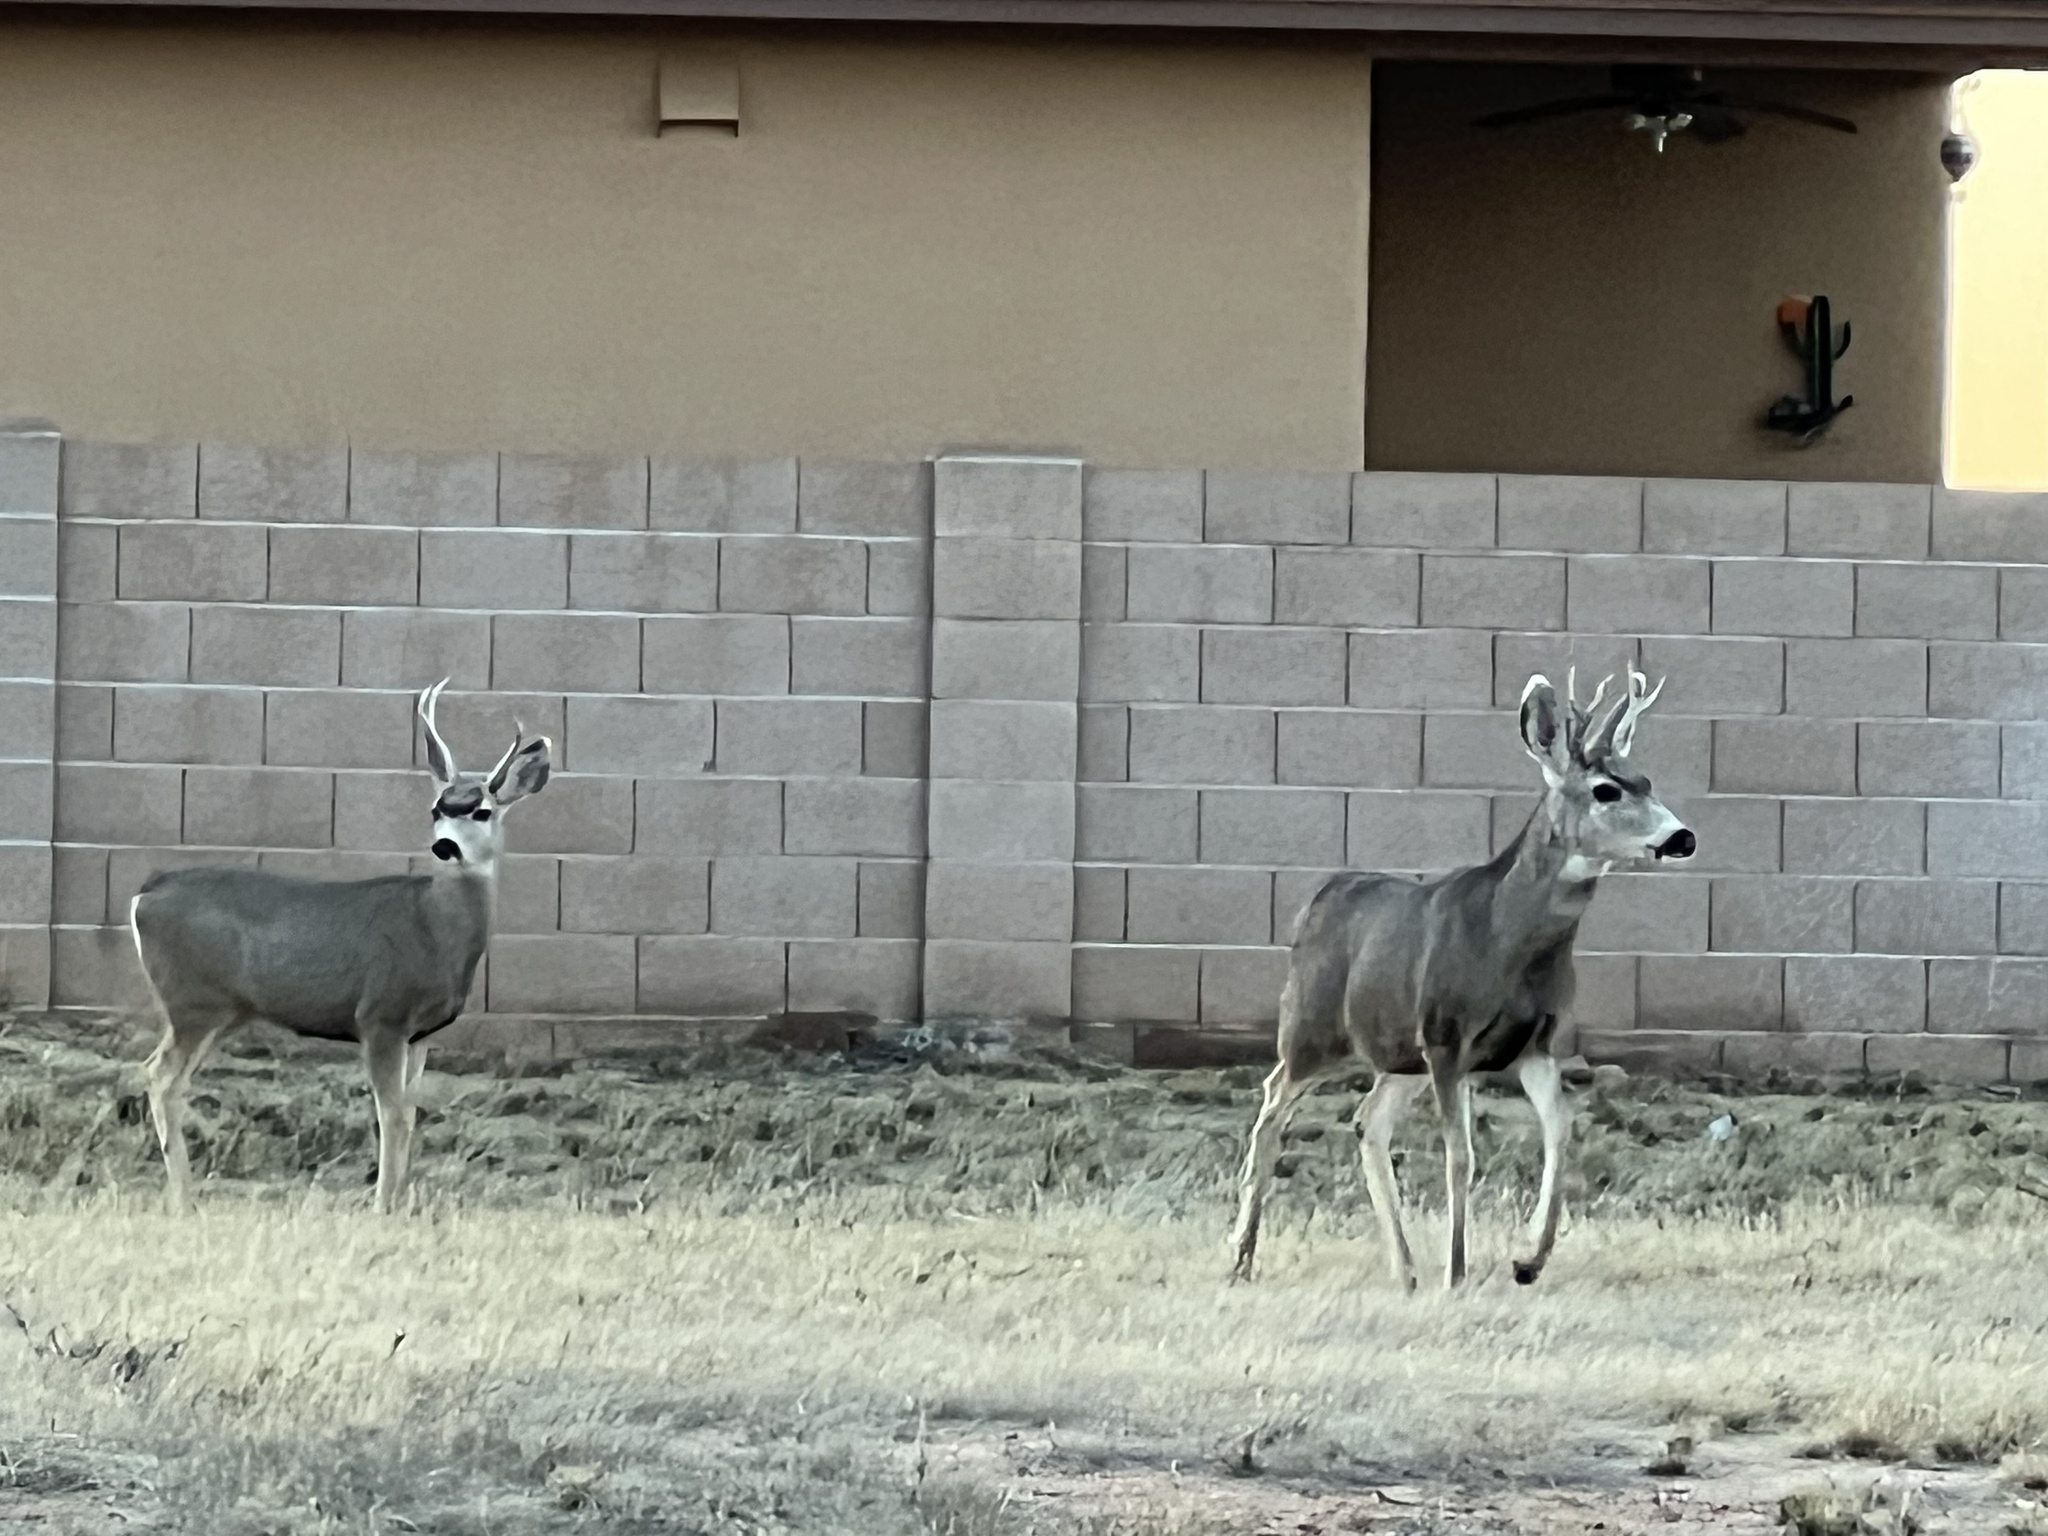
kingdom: Animalia
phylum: Chordata
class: Mammalia
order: Artiodactyla
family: Cervidae
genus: Odocoileus
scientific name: Odocoileus hemionus
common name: Mule deer
